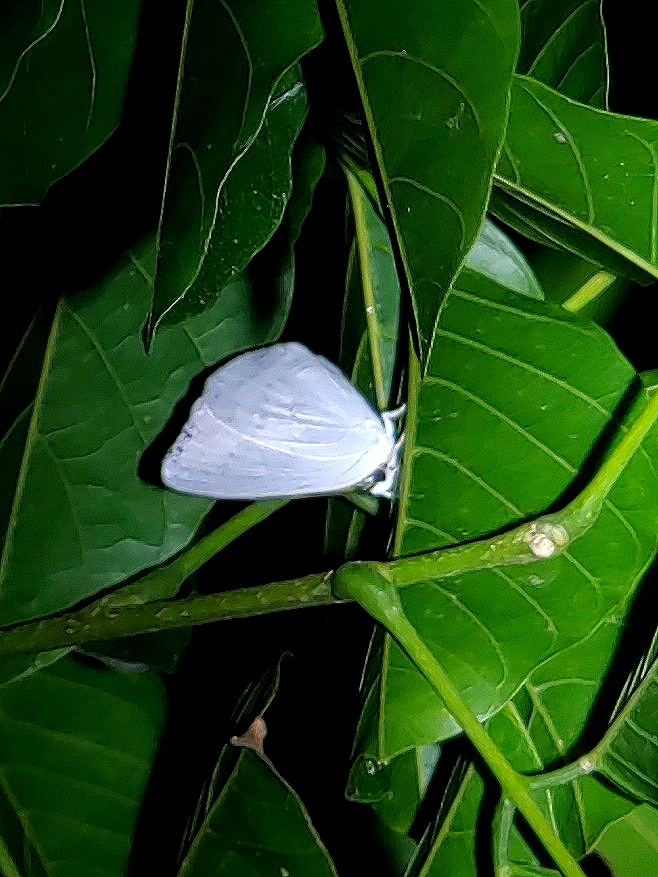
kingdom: Animalia
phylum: Arthropoda
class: Insecta
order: Lepidoptera
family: Lycaenidae
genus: Curetis
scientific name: Curetis thetis
